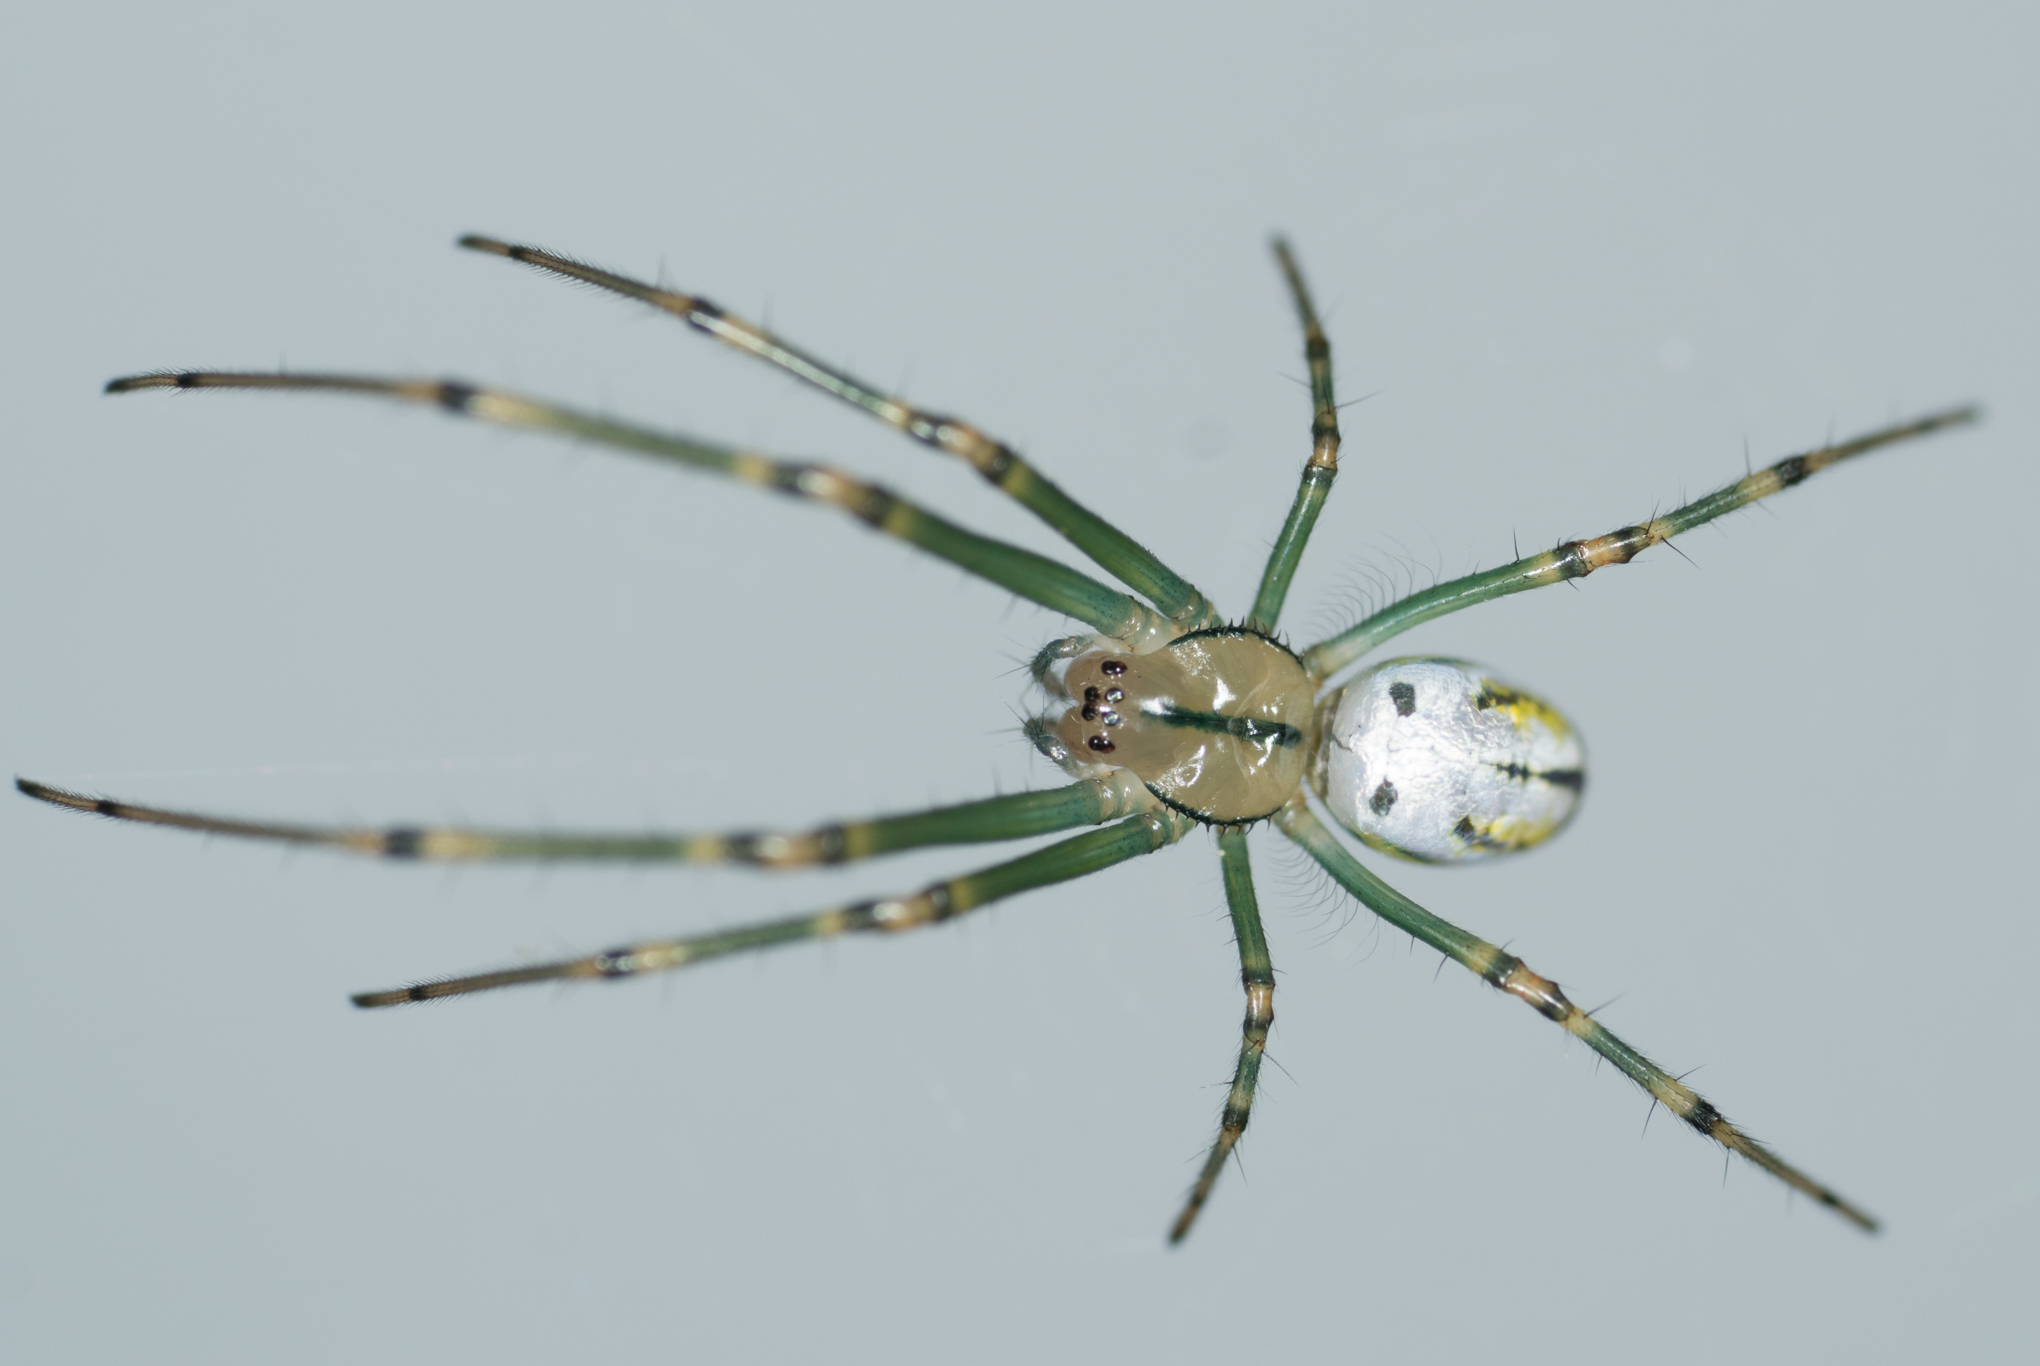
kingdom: Animalia
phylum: Arthropoda
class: Arachnida
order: Araneae
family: Tetragnathidae
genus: Leucauge
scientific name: Leucauge venusta
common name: Longjawed orb weavers
